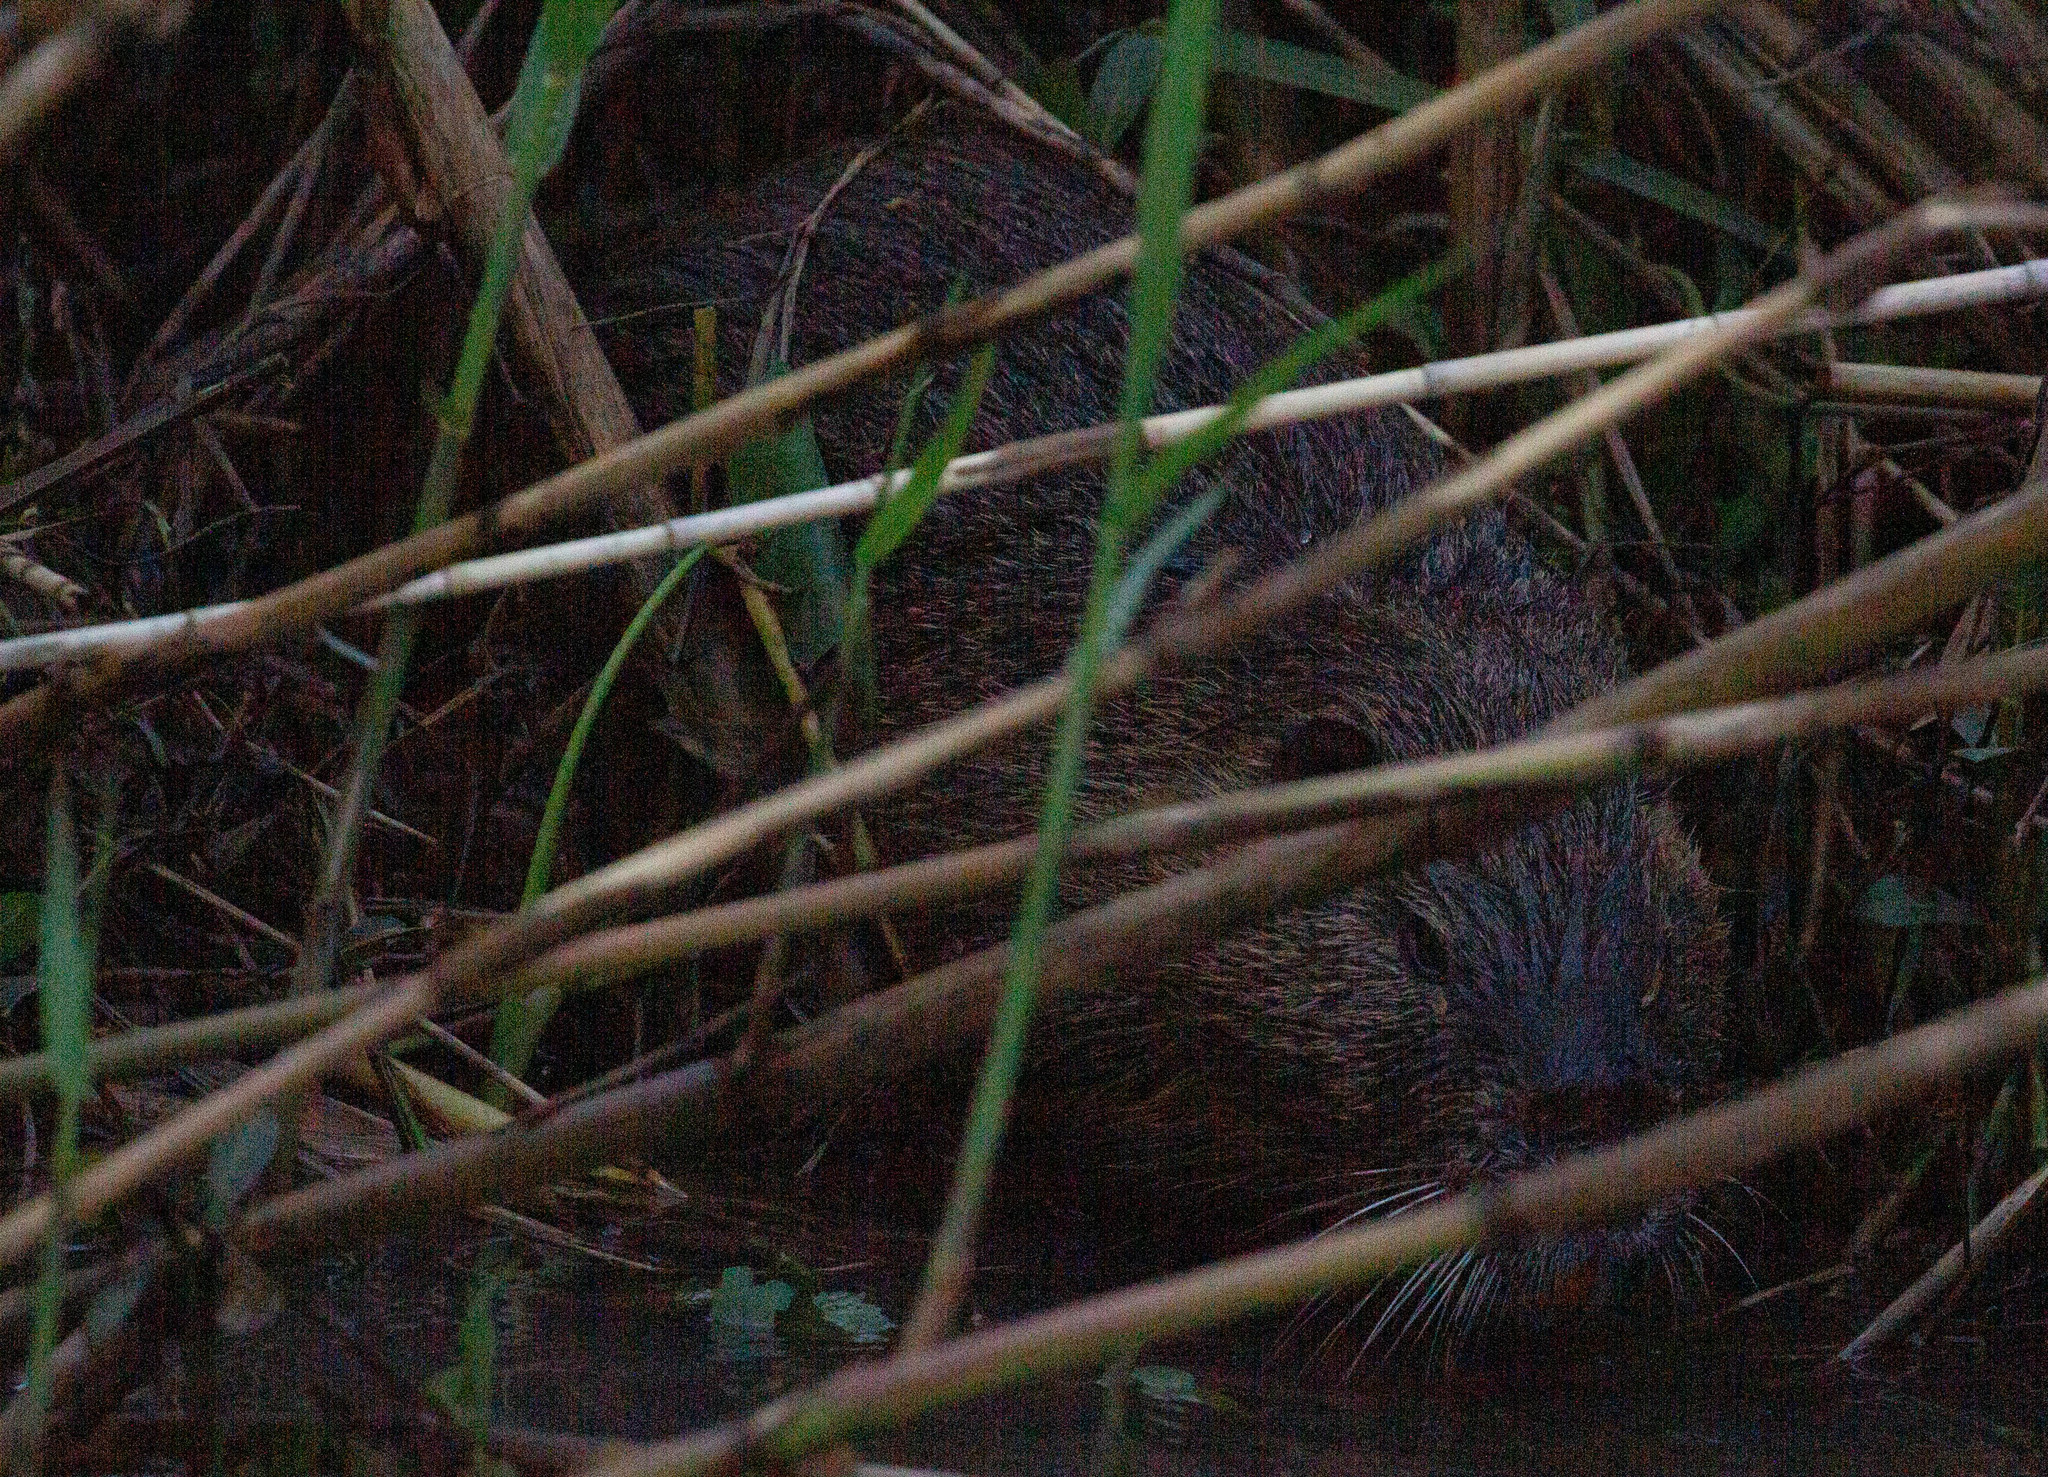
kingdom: Animalia
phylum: Chordata
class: Mammalia
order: Rodentia
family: Myocastoridae
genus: Myocastor
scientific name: Myocastor coypus
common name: Coypu
